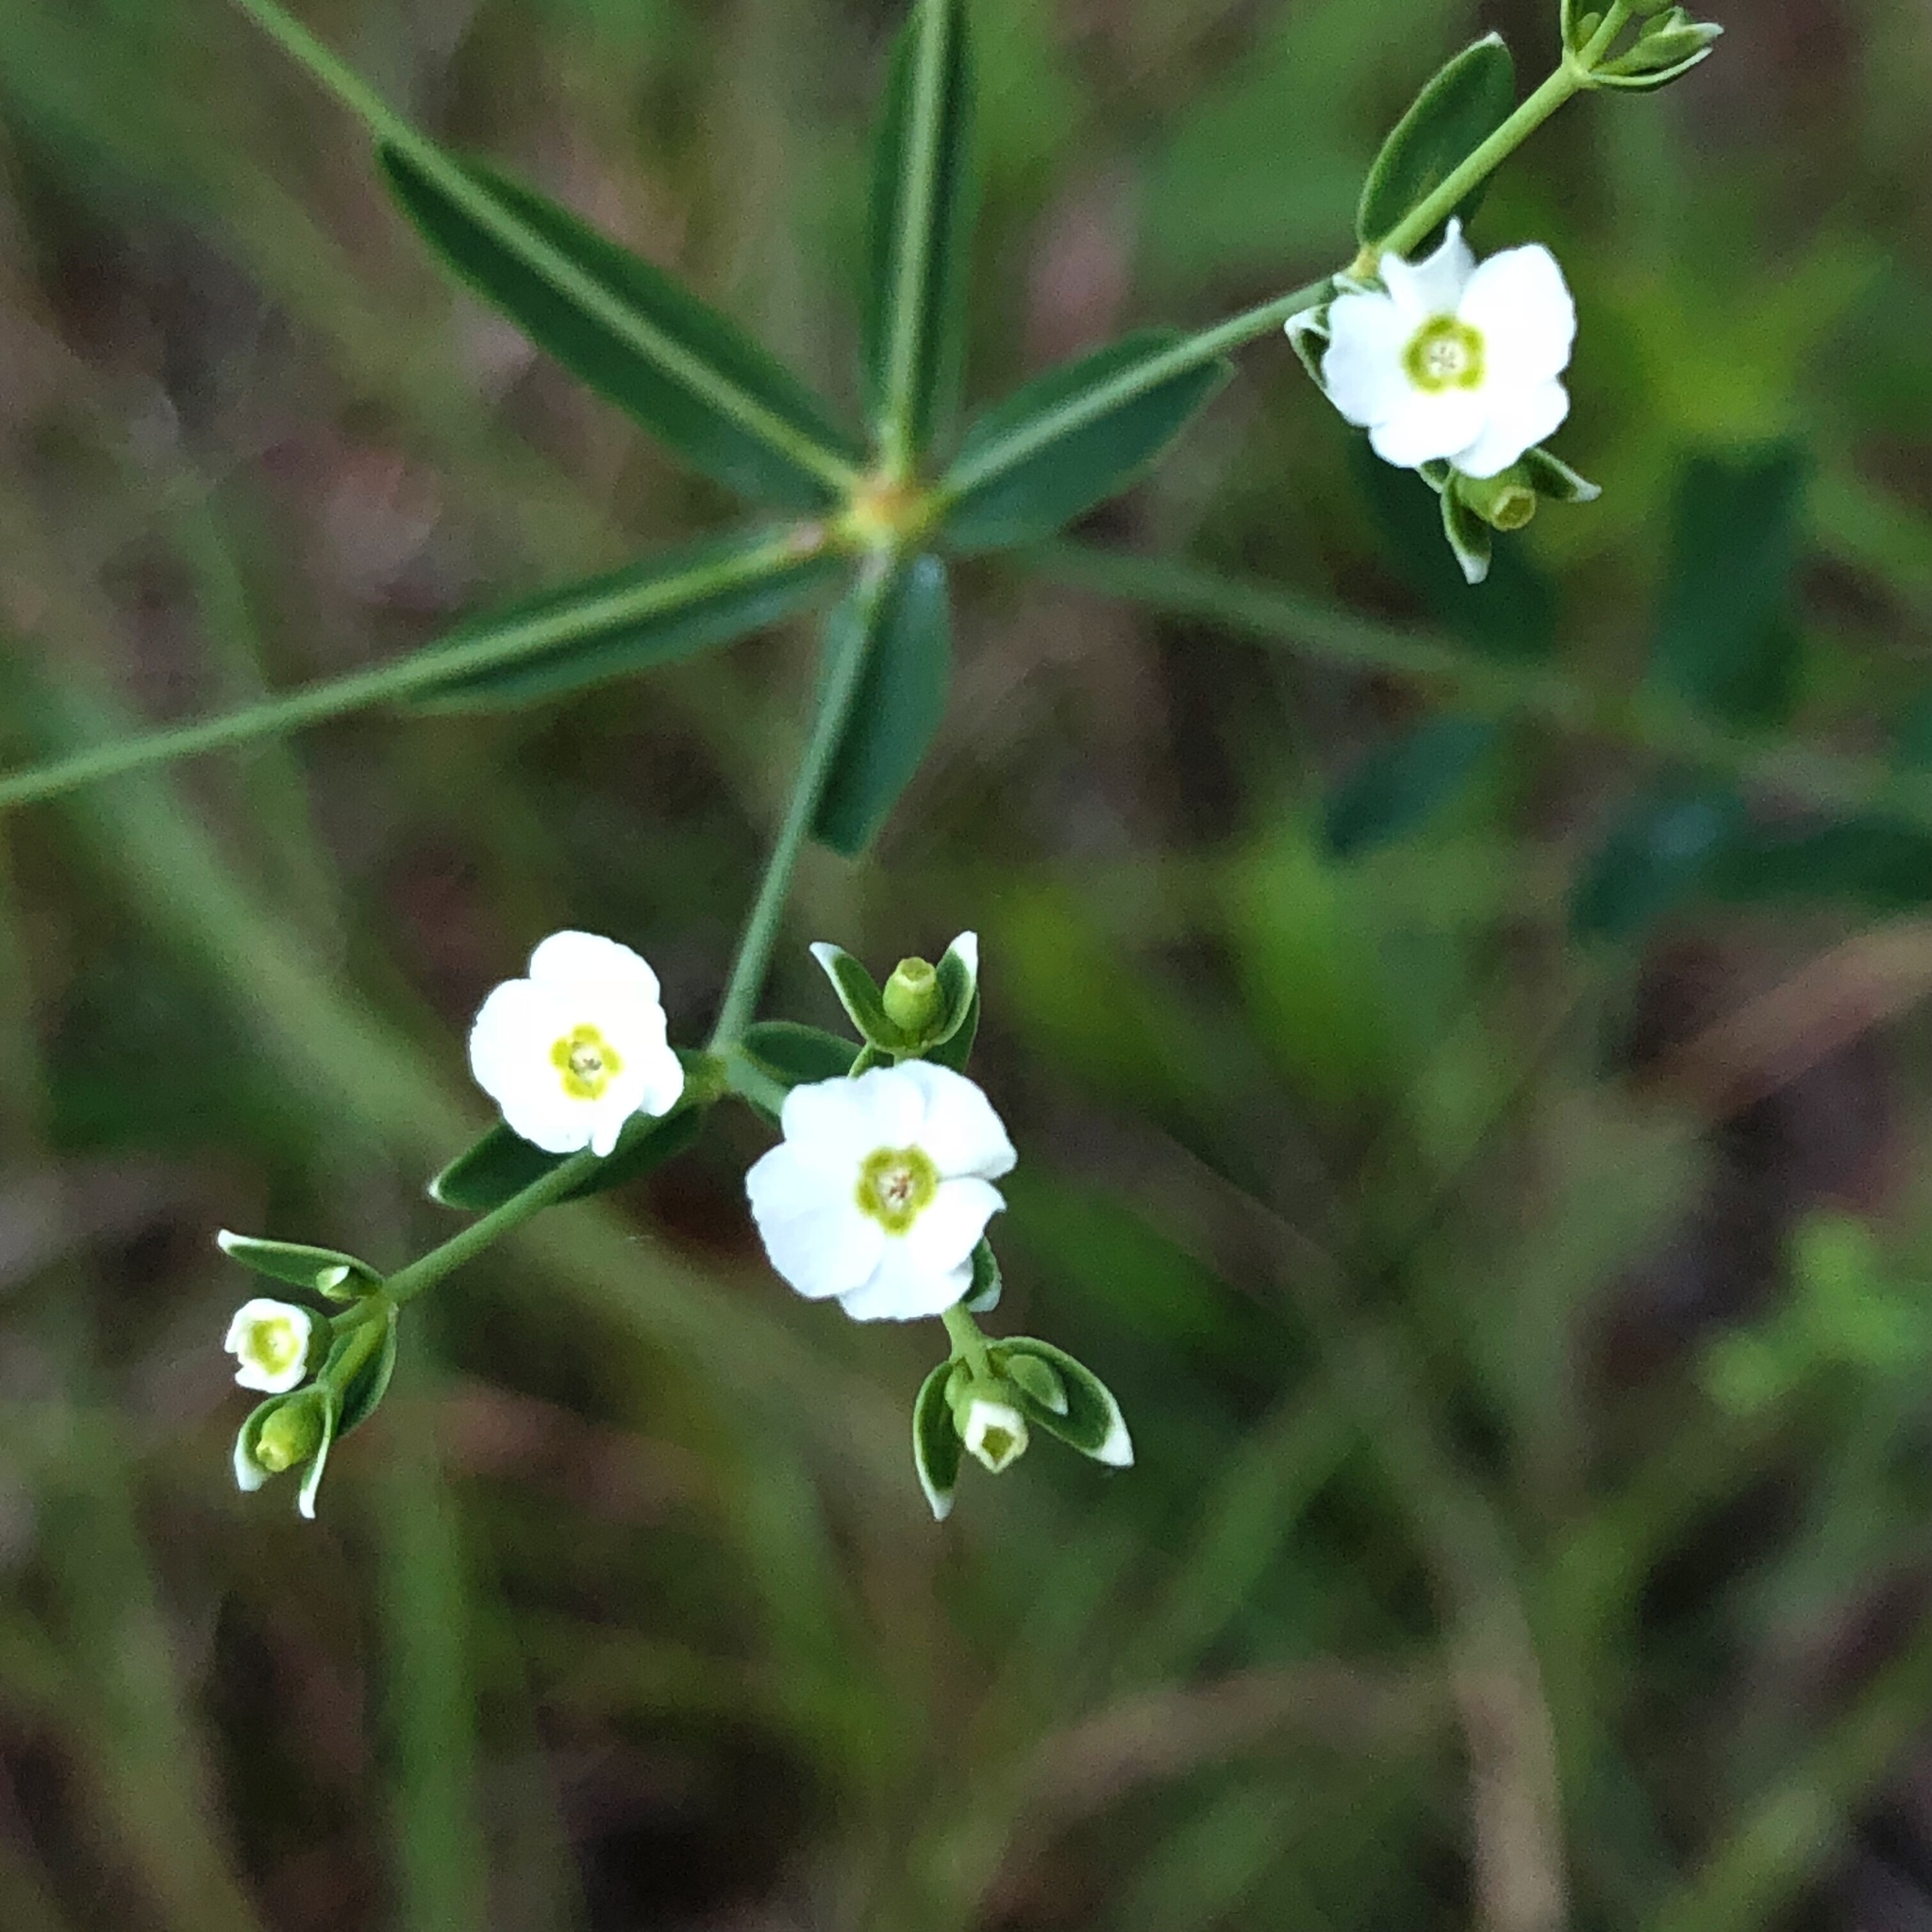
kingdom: Plantae
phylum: Tracheophyta
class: Magnoliopsida
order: Malpighiales
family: Euphorbiaceae
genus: Euphorbia
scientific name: Euphorbia corollata
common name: Flowering spurge
